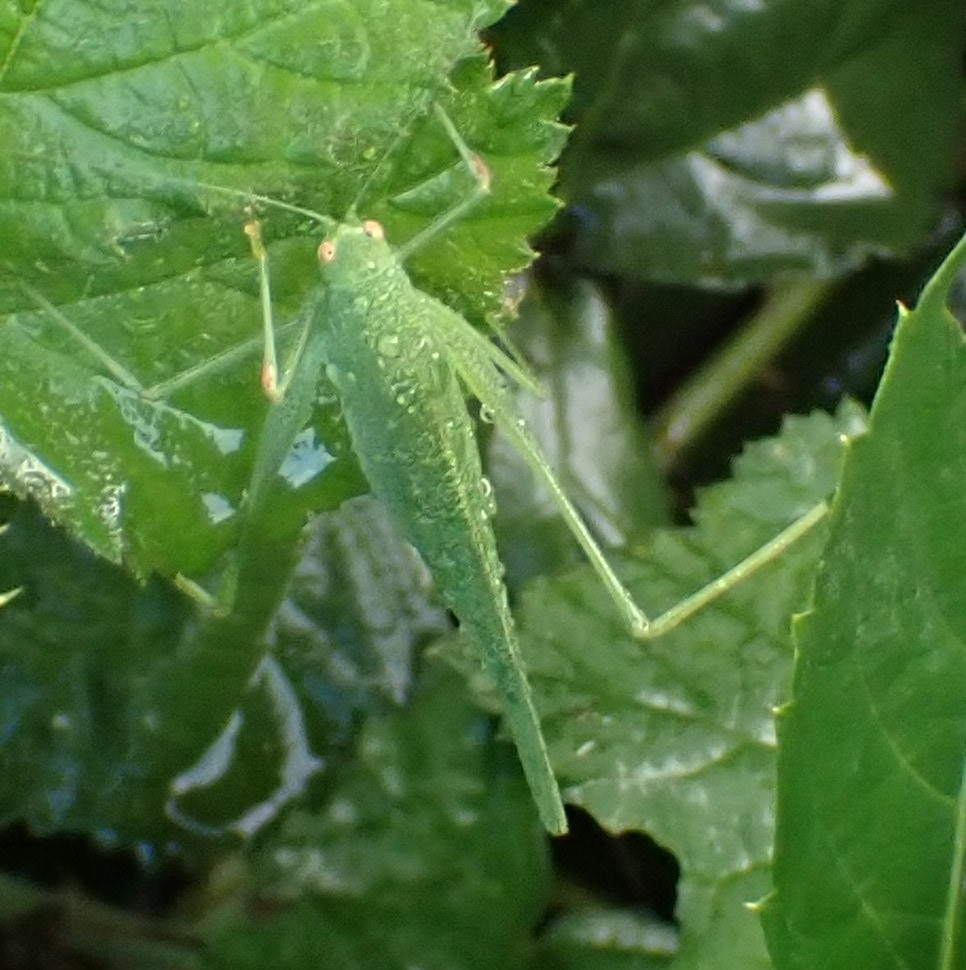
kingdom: Animalia
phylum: Arthropoda
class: Insecta
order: Orthoptera
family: Tettigoniidae
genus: Phaneroptera
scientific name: Phaneroptera nana
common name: Southern sickle bush-cricket
